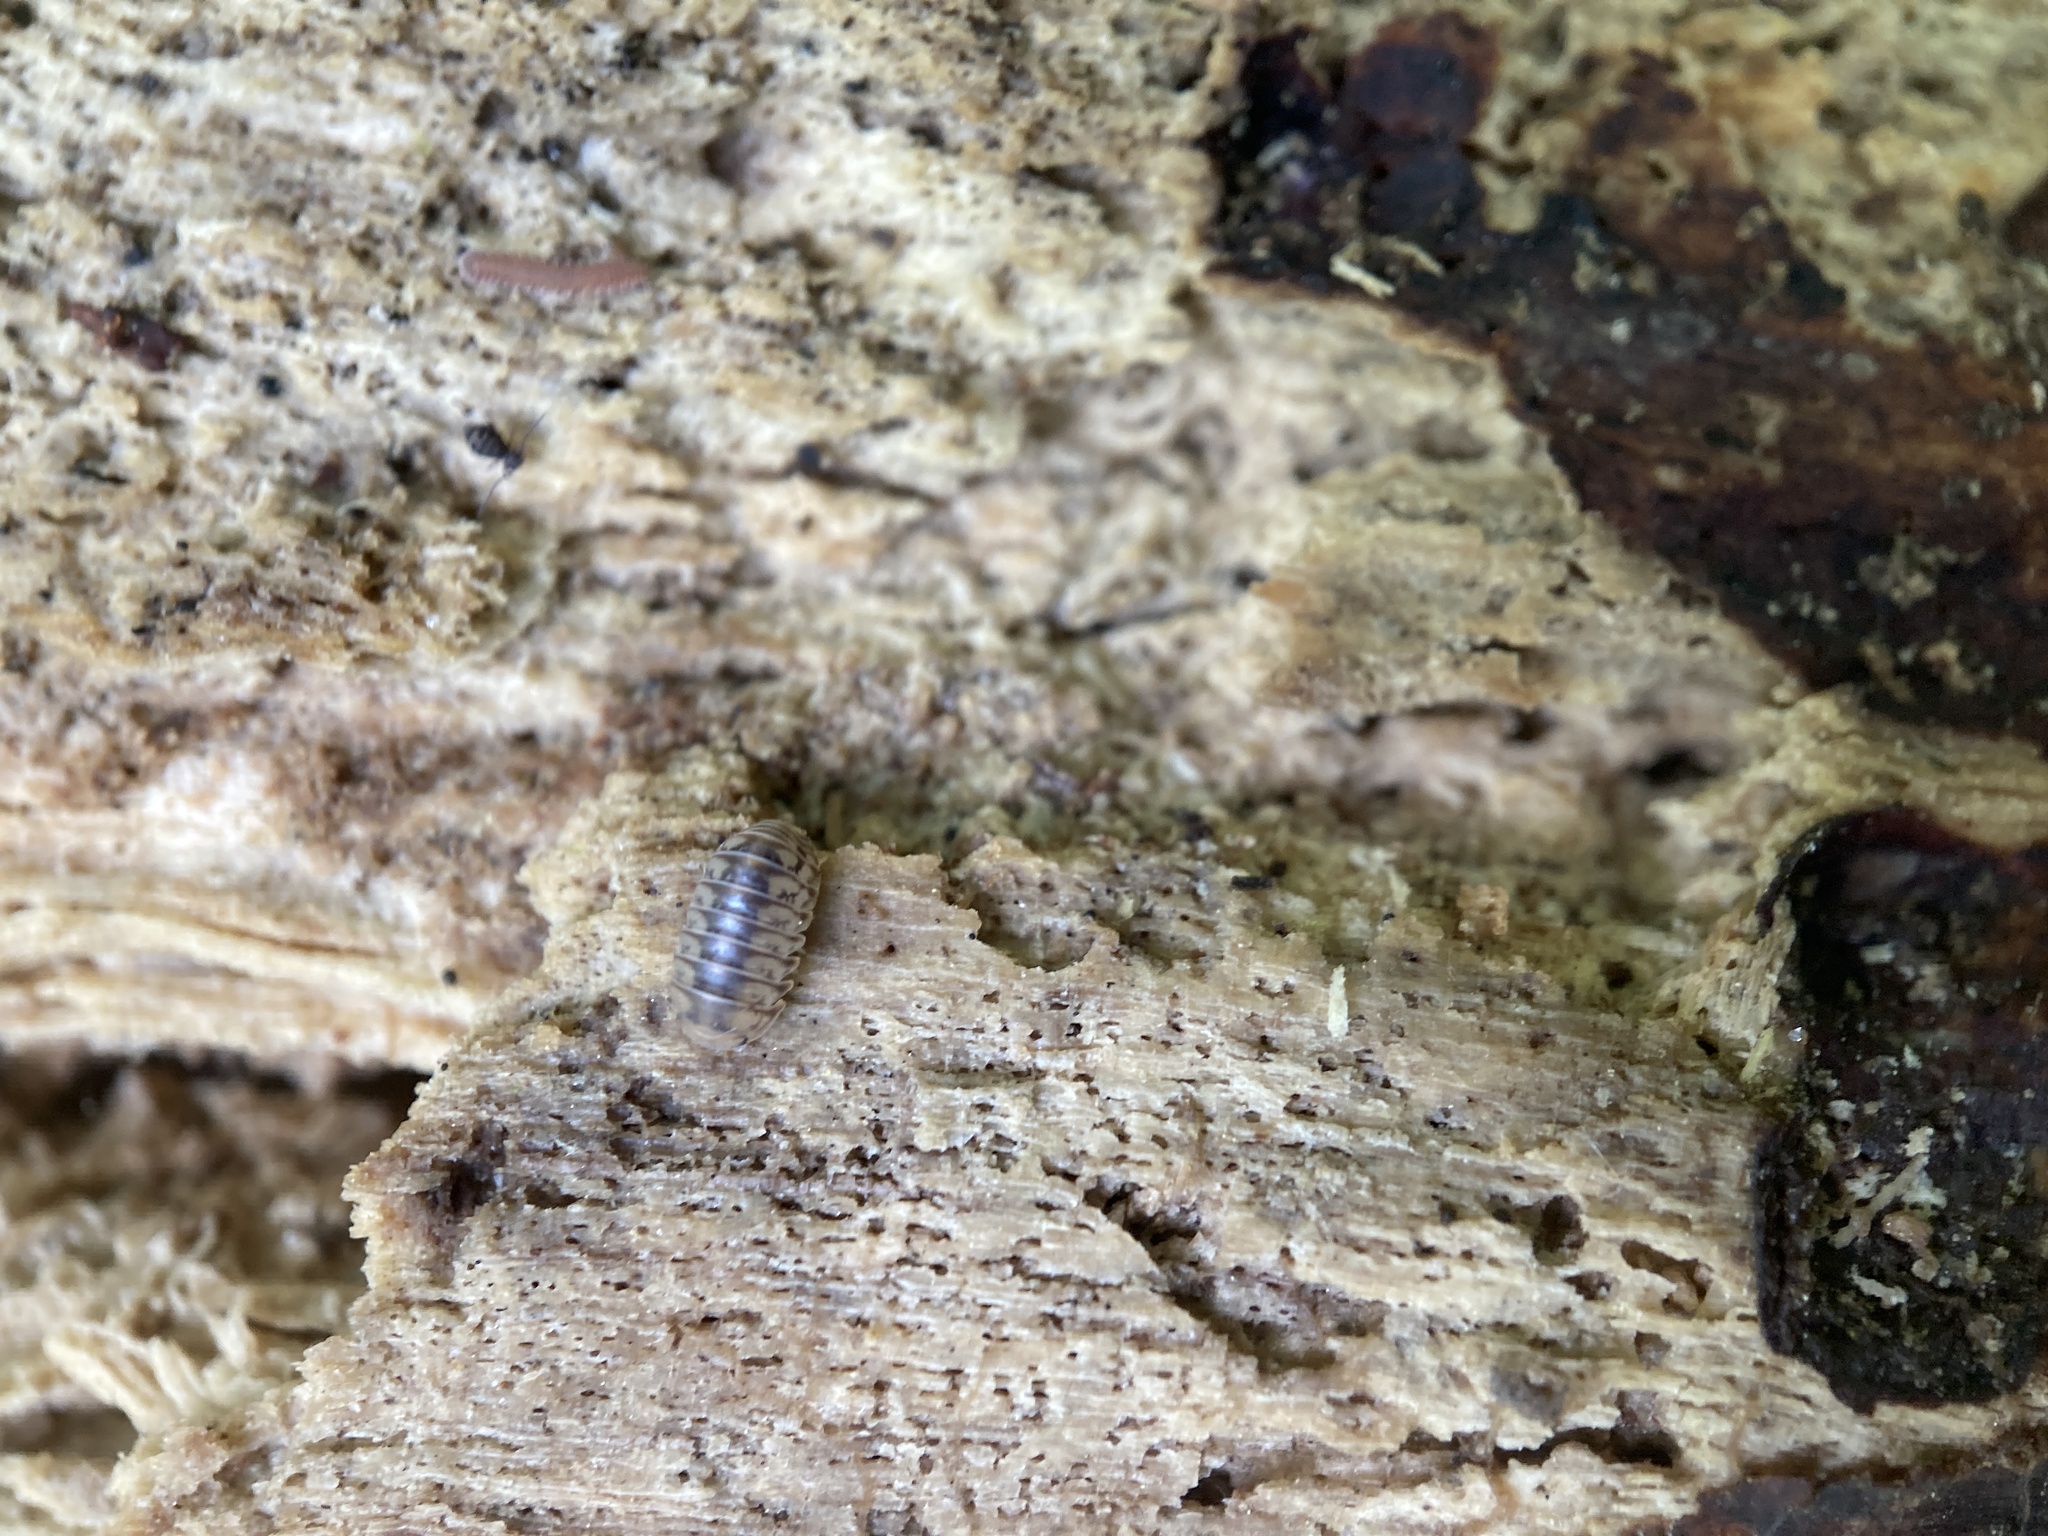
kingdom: Animalia
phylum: Arthropoda
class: Malacostraca
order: Isopoda
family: Armadillidae
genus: Venezillo
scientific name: Venezillo parvus
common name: Pillbug
